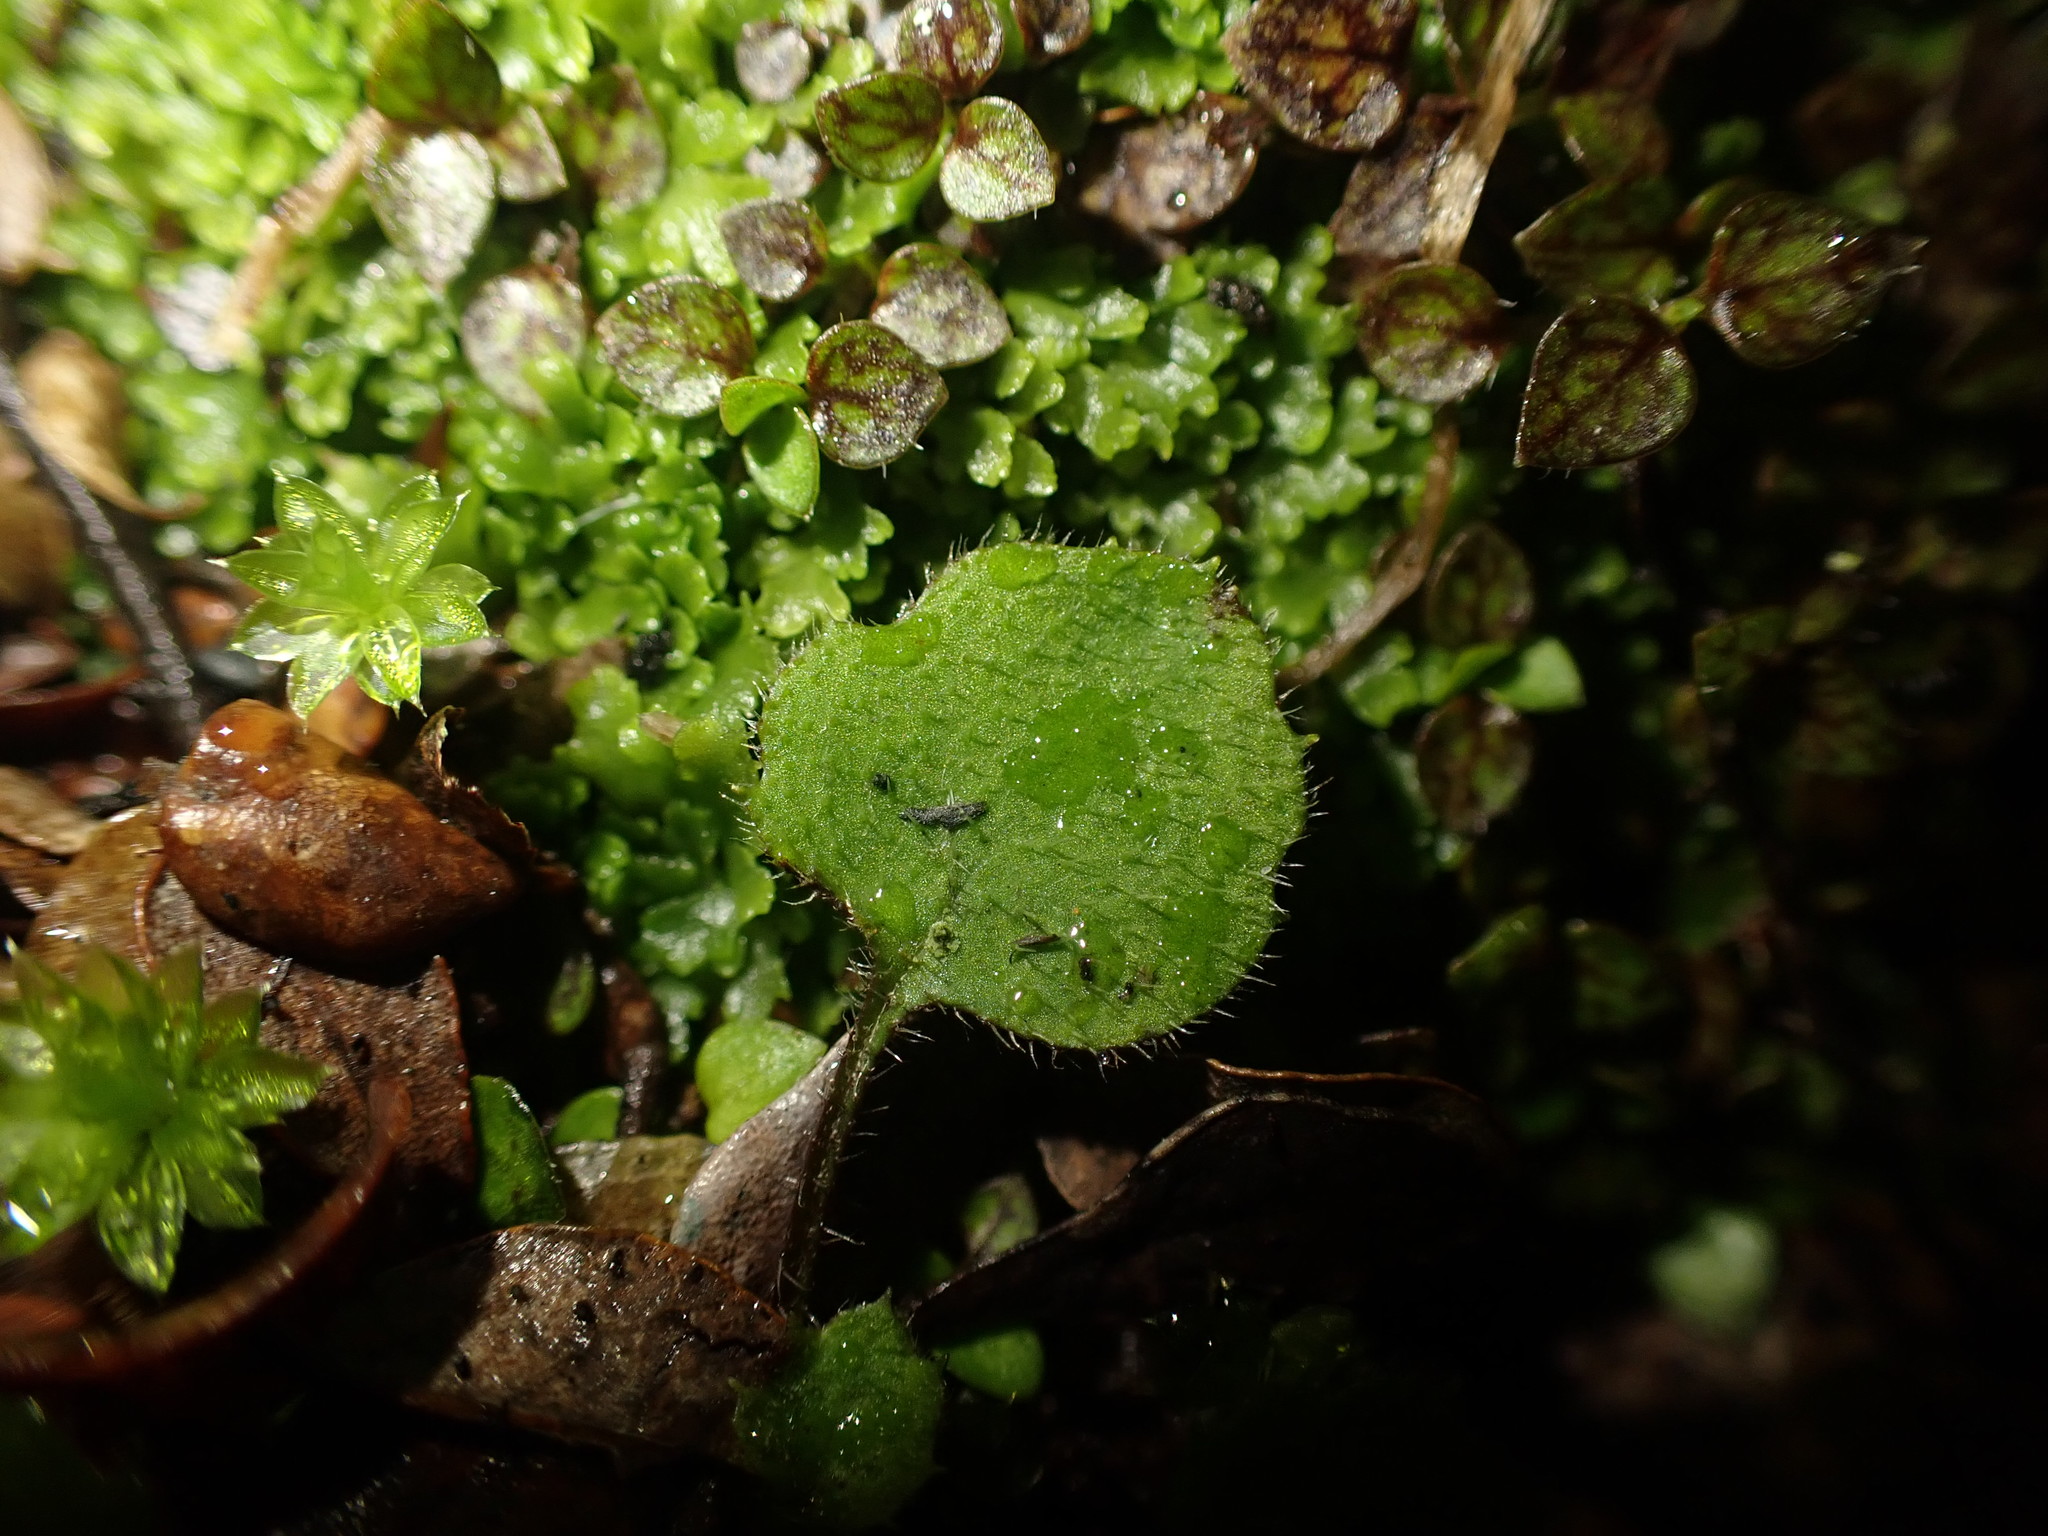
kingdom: Plantae
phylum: Tracheophyta
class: Magnoliopsida
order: Asterales
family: Asteraceae
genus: Lagenophora
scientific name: Lagenophora strangulata
